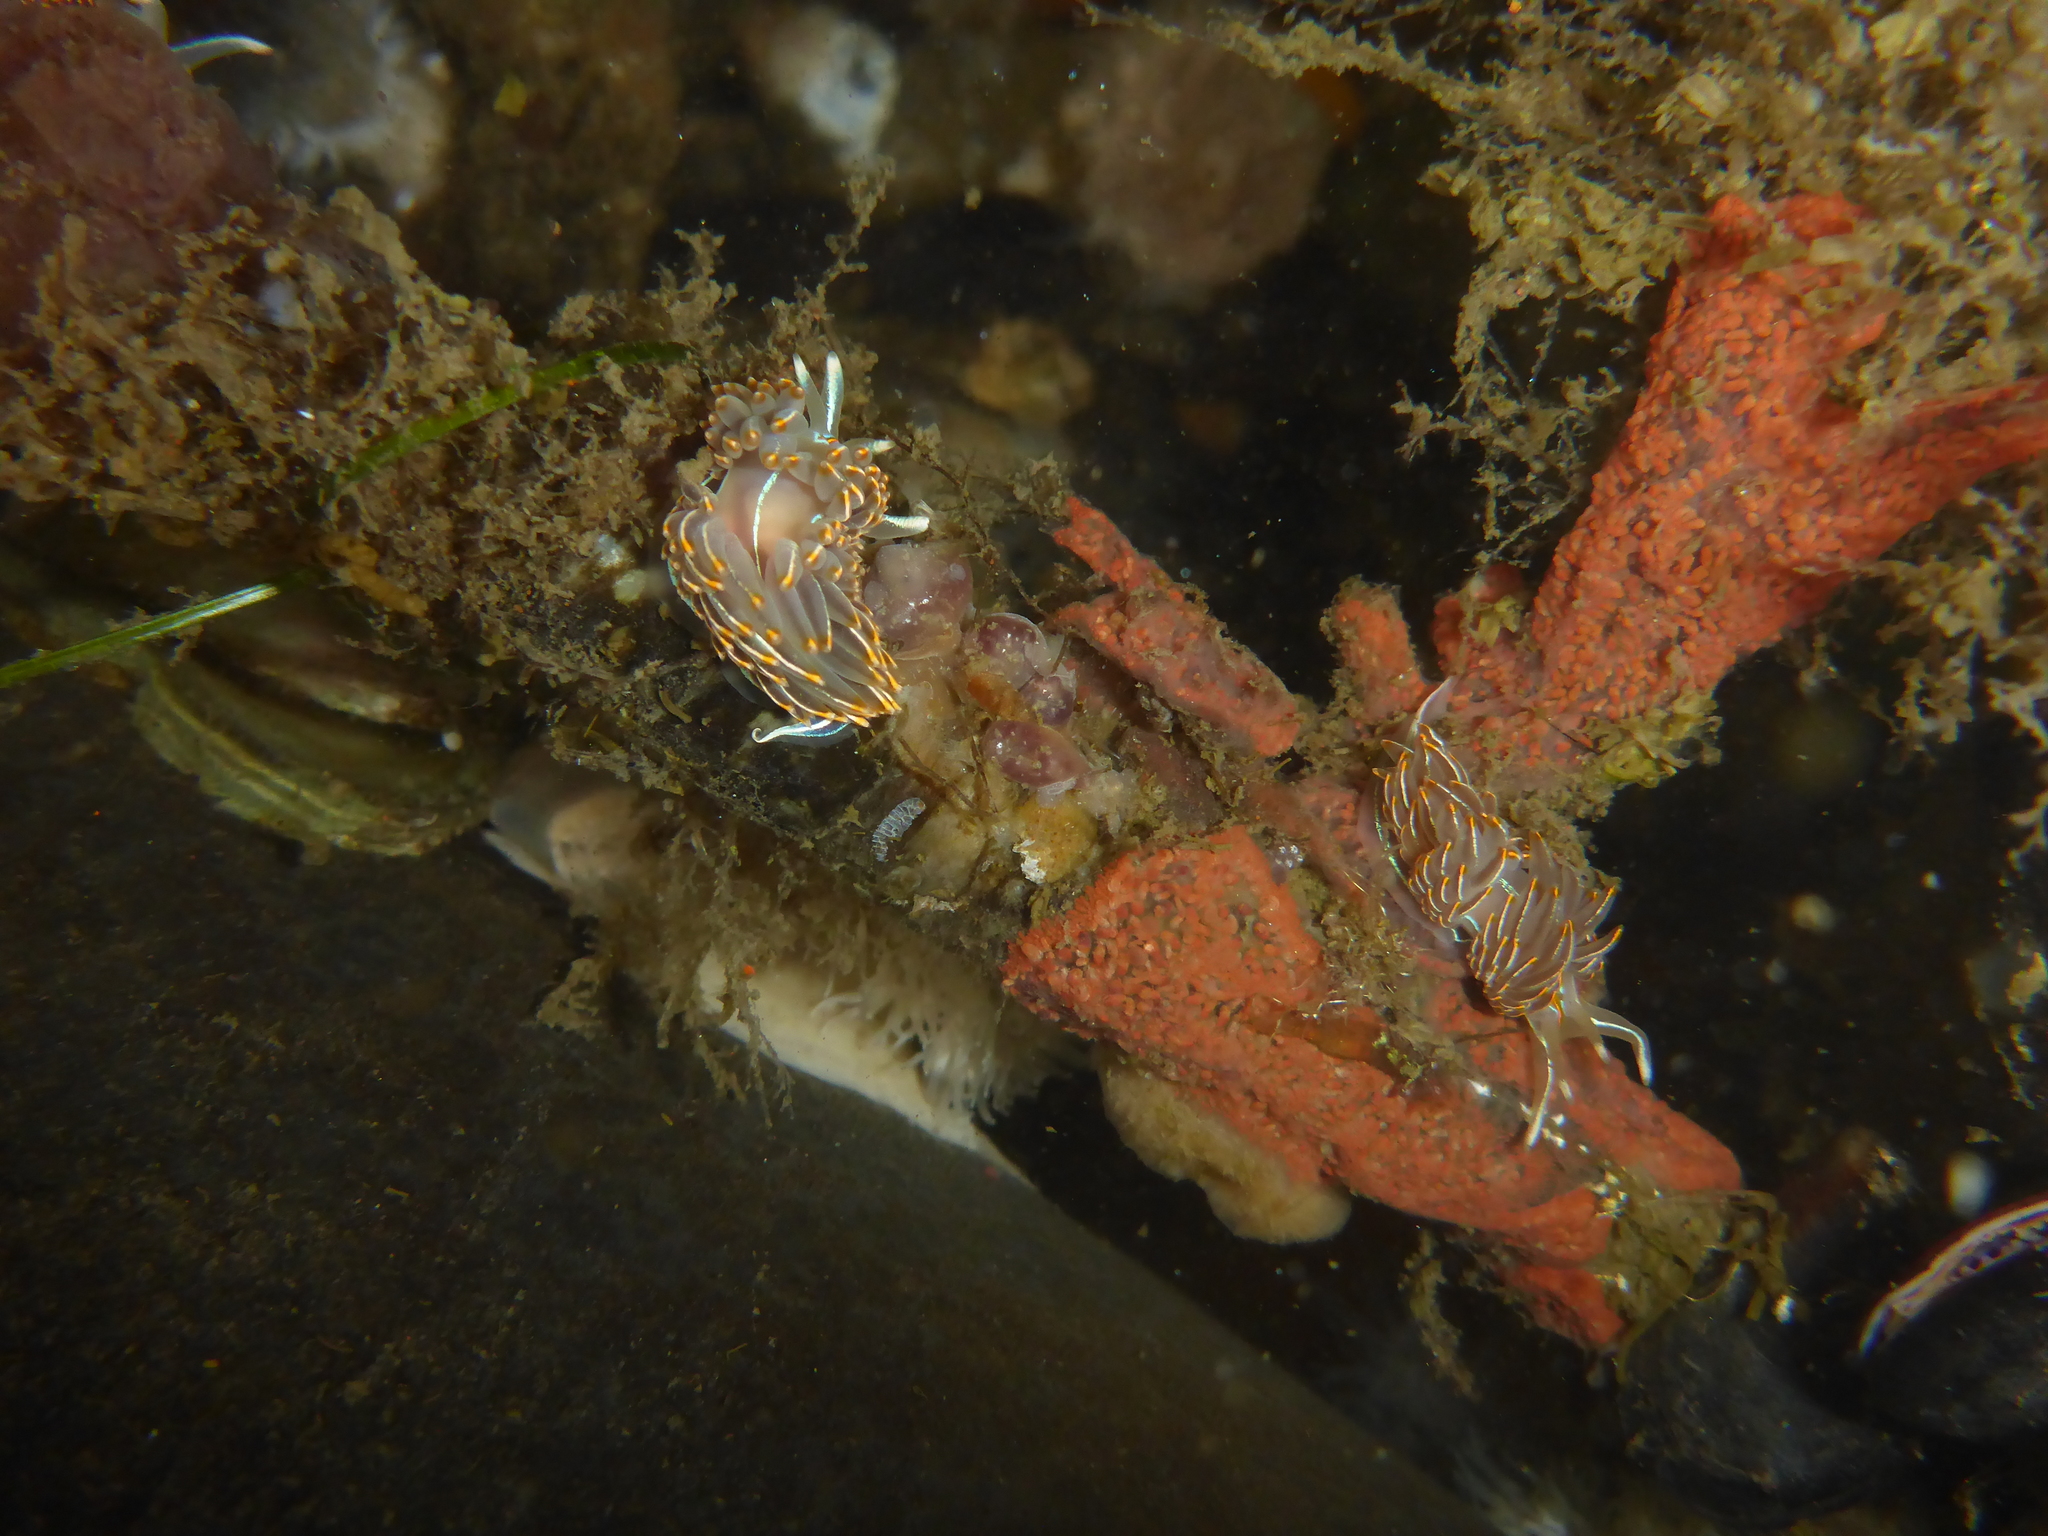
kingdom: Animalia
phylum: Mollusca
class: Gastropoda
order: Nudibranchia
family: Myrrhinidae
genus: Hermissenda
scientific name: Hermissenda crassicornis
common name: Hermissenda
